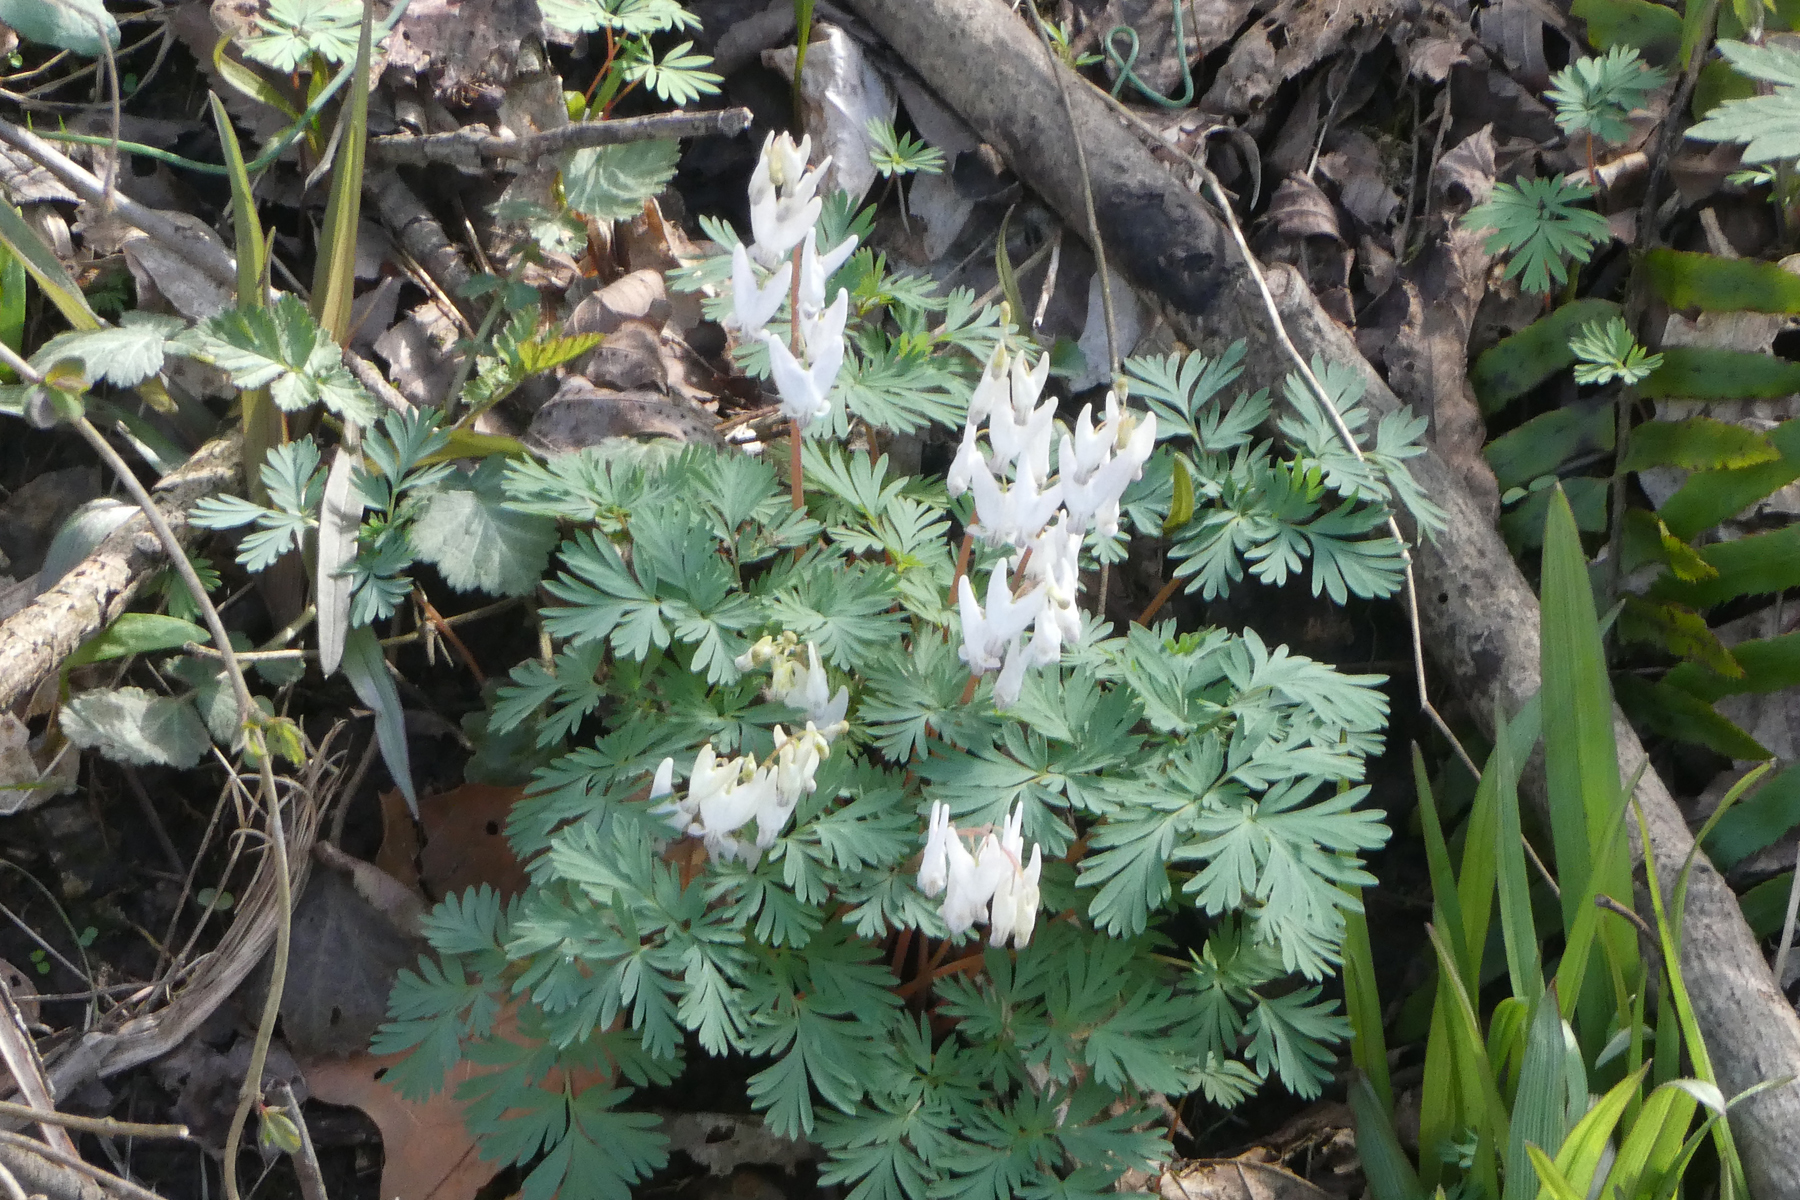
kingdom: Plantae
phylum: Tracheophyta
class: Magnoliopsida
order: Ranunculales
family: Papaveraceae
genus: Dicentra
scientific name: Dicentra cucullaria
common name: Dutchman's breeches
